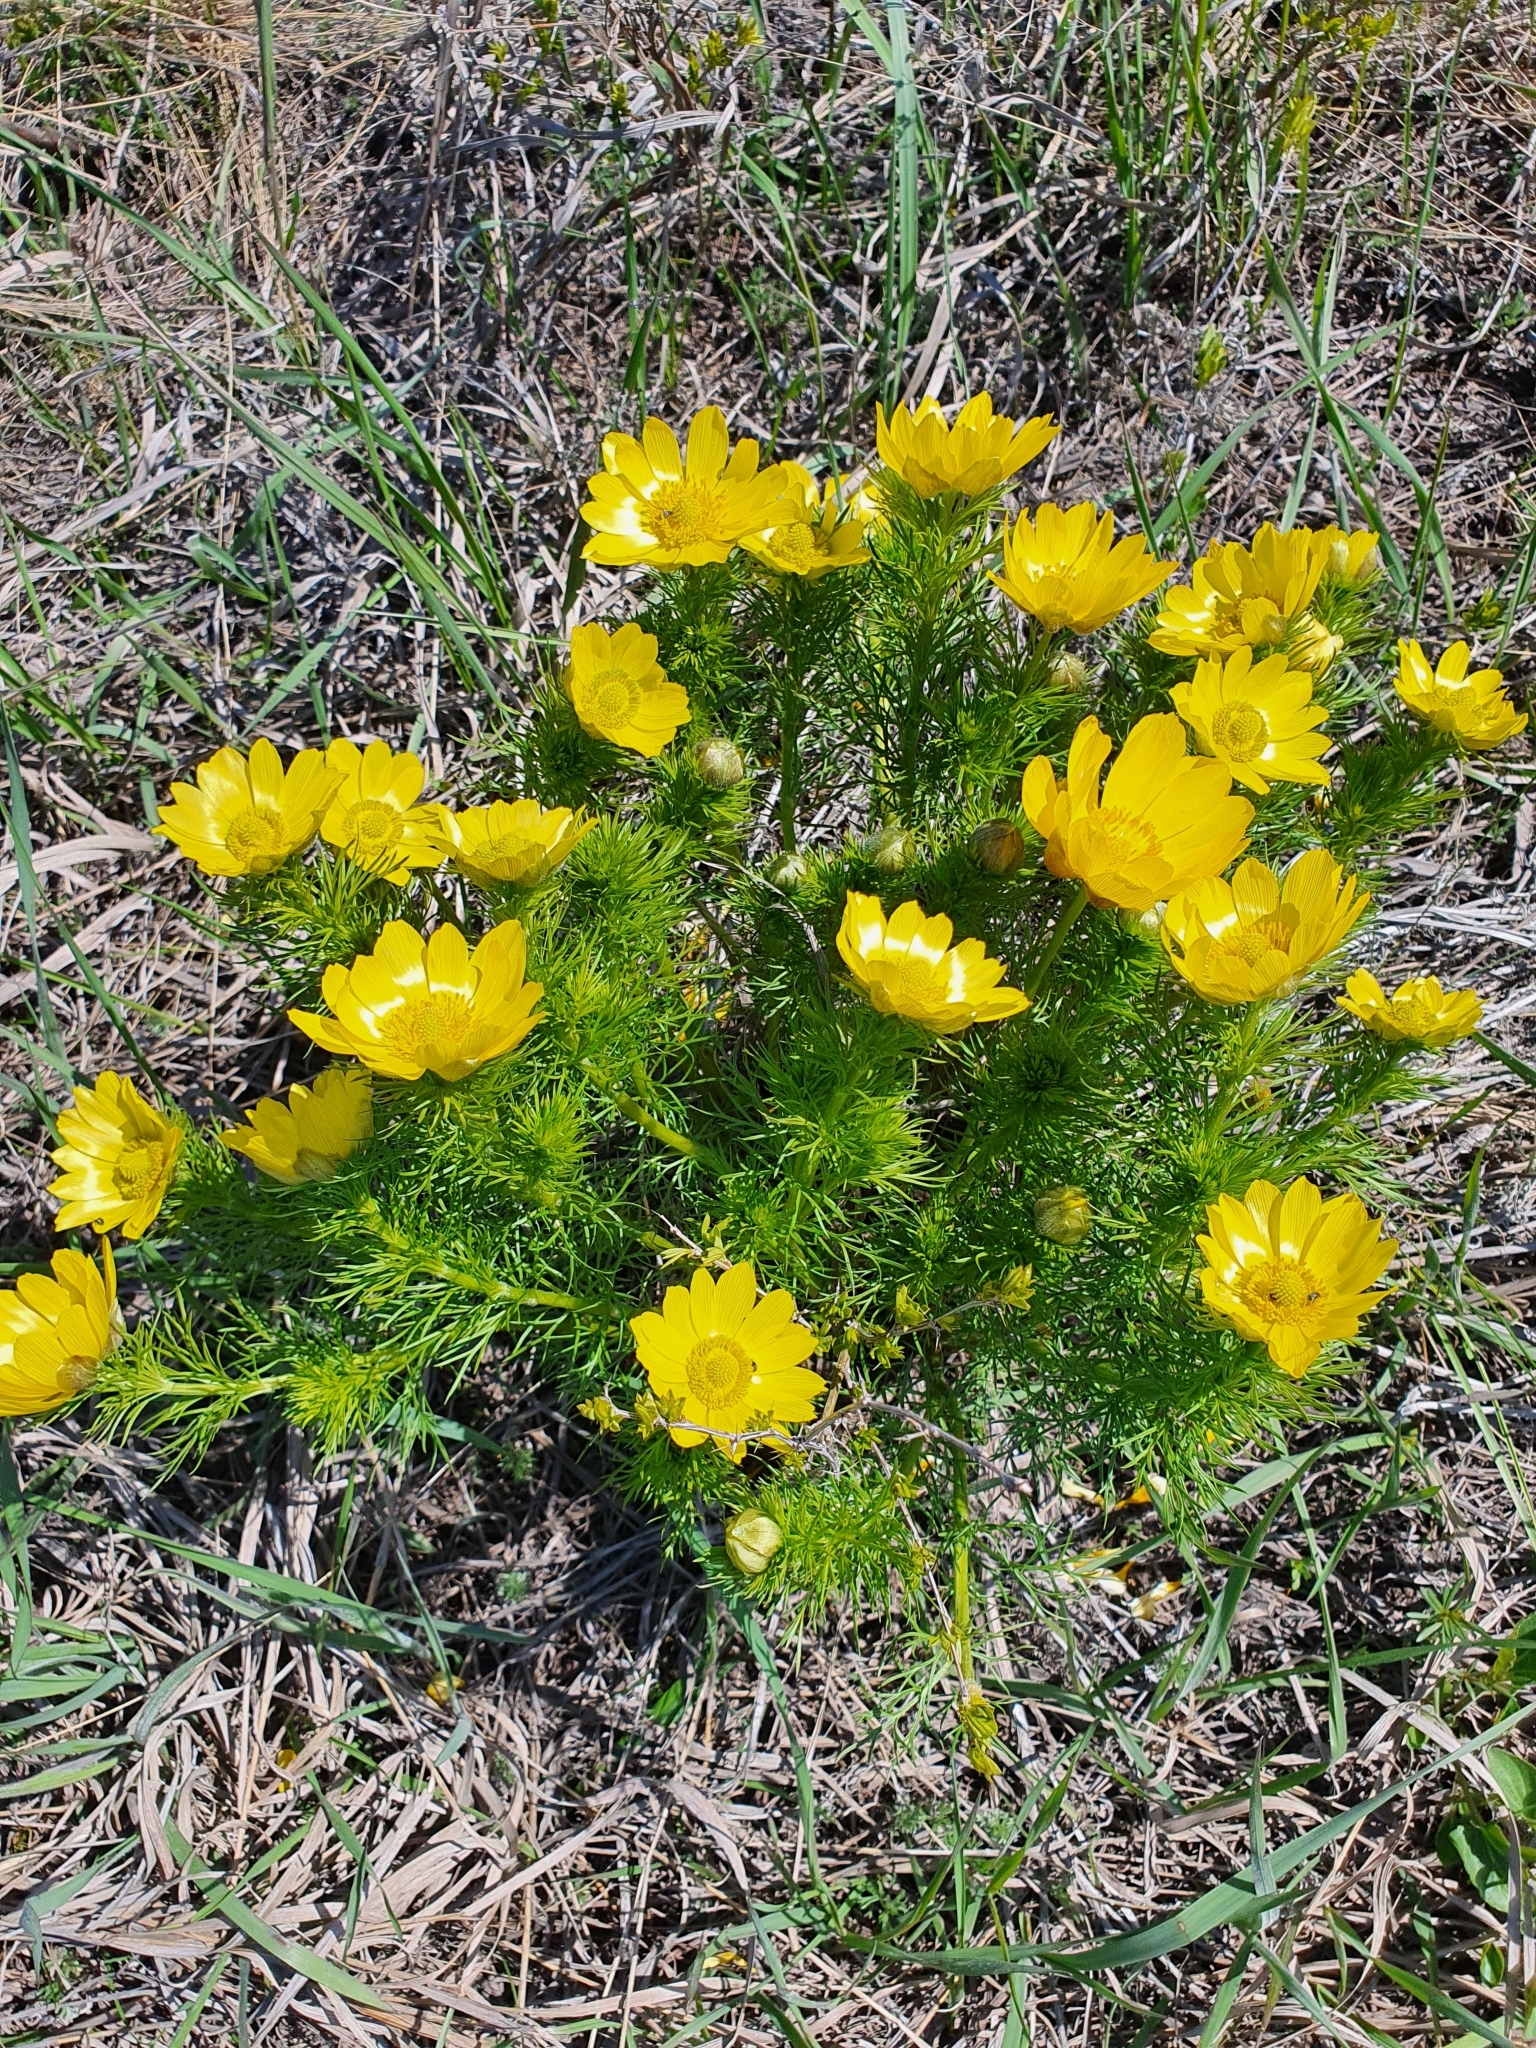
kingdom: Plantae
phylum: Tracheophyta
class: Magnoliopsida
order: Ranunculales
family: Ranunculaceae
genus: Adonis
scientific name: Adonis vernalis
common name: Yellow pheasants-eye
